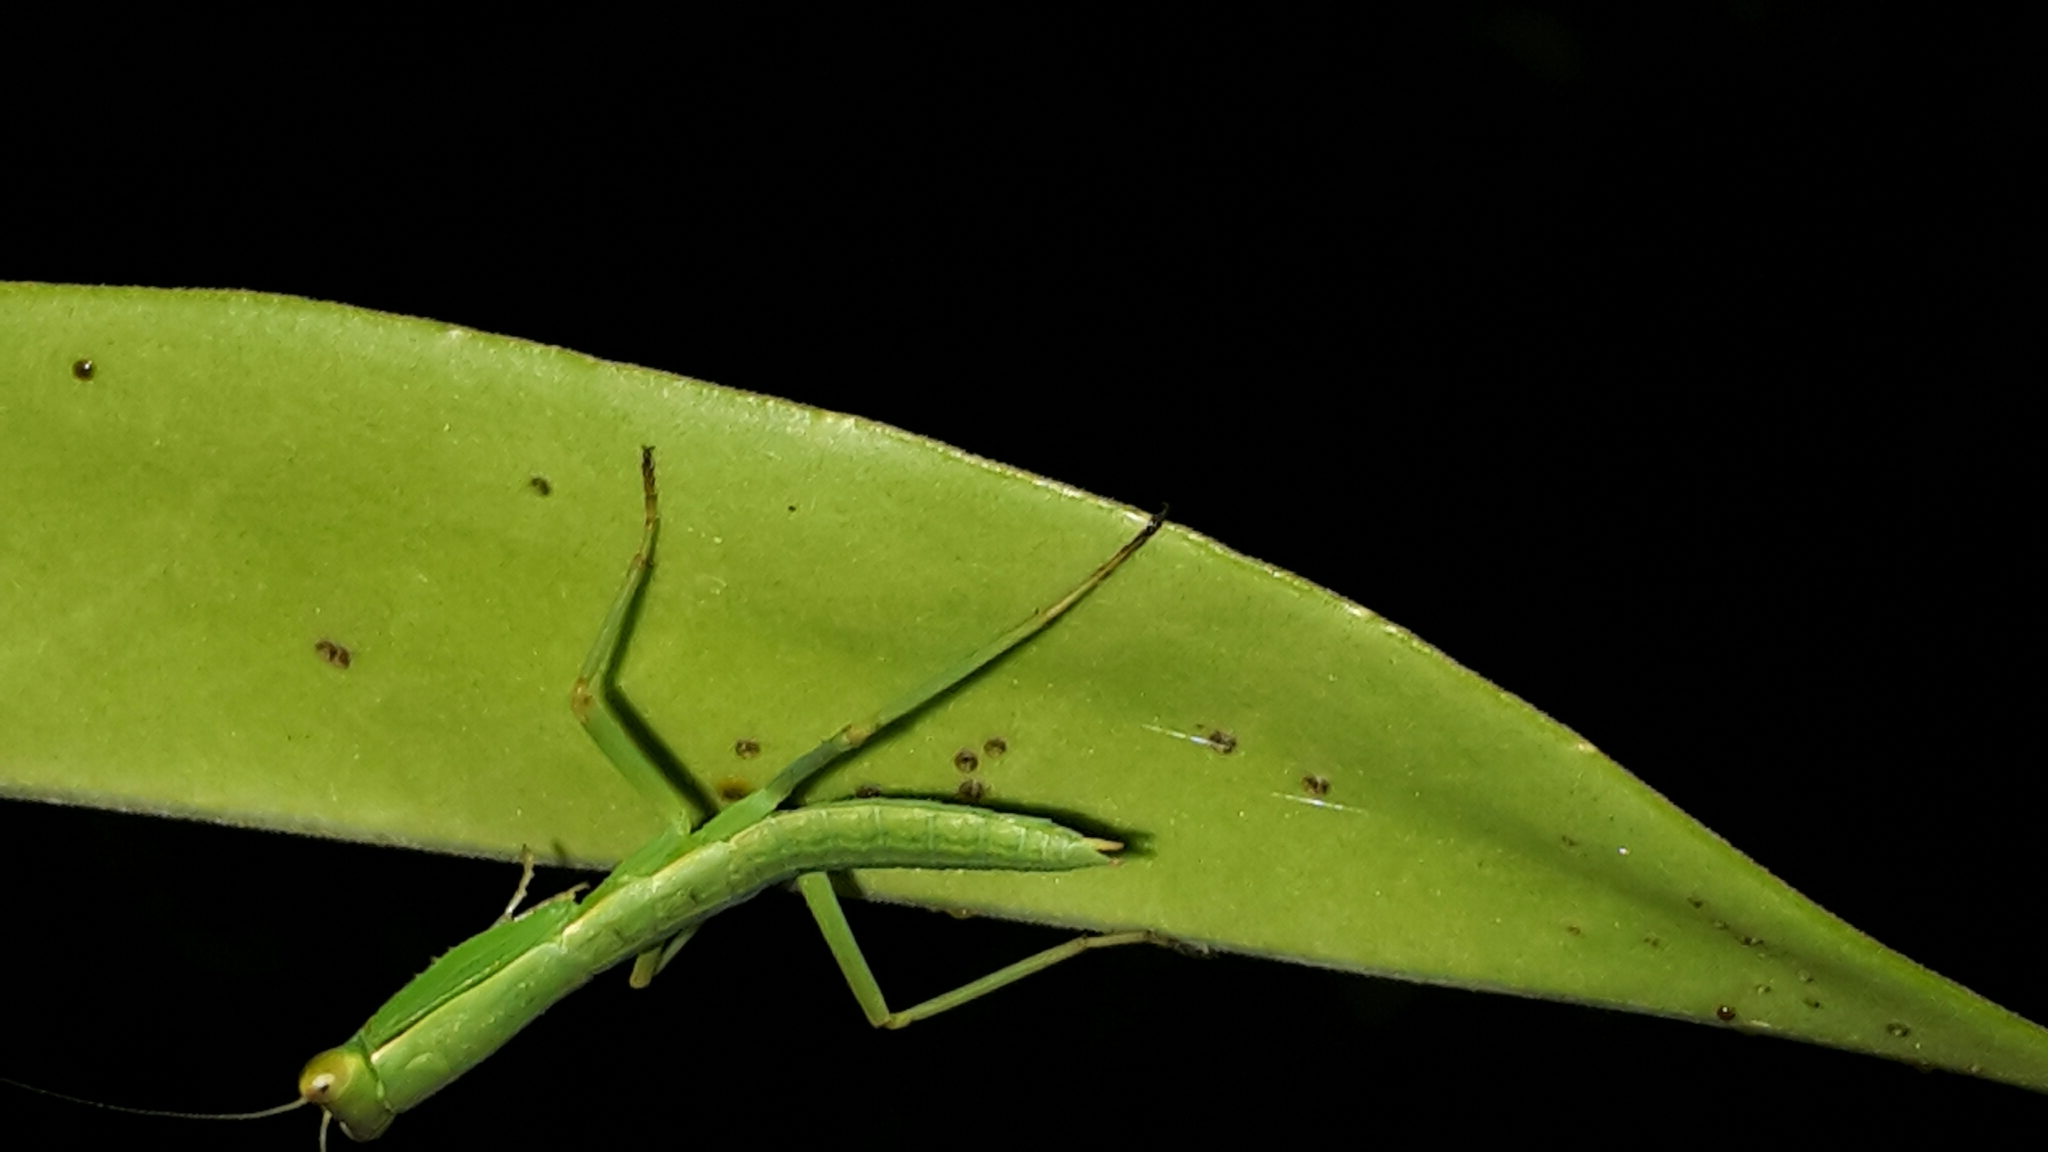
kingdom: Animalia
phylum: Arthropoda
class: Insecta
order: Mantodea
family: Mantidae
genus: Orthodera
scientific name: Orthodera novaezealandiae
